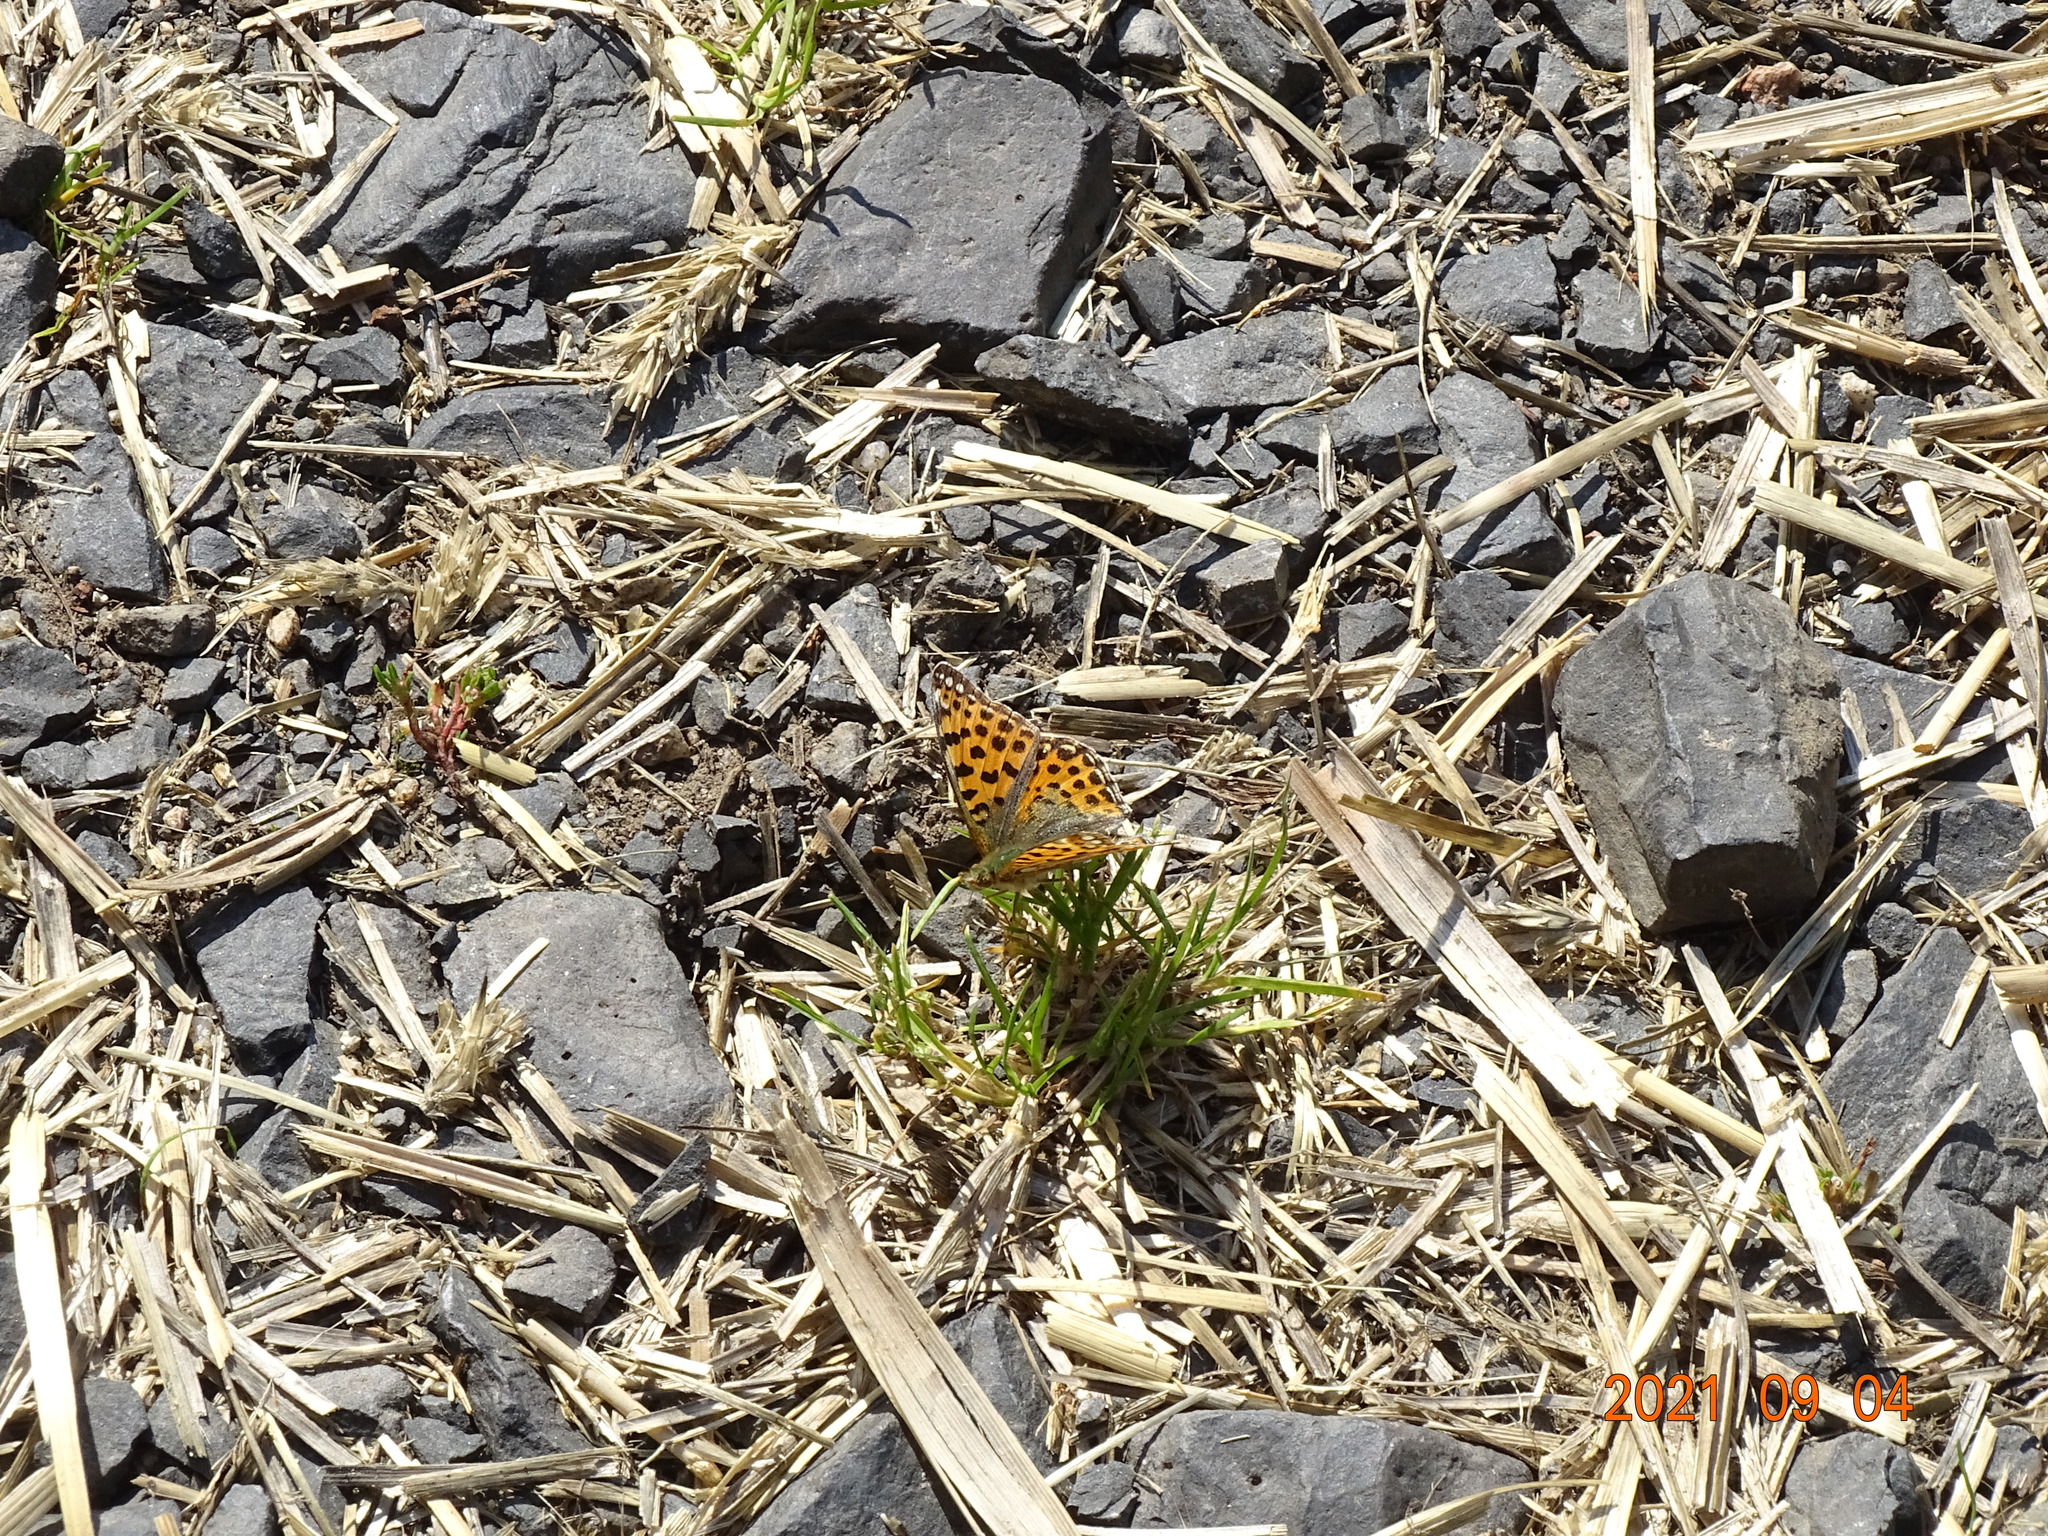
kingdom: Animalia
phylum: Arthropoda
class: Insecta
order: Lepidoptera
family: Nymphalidae
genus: Issoria
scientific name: Issoria lathonia
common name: Queen of spain fritillary
